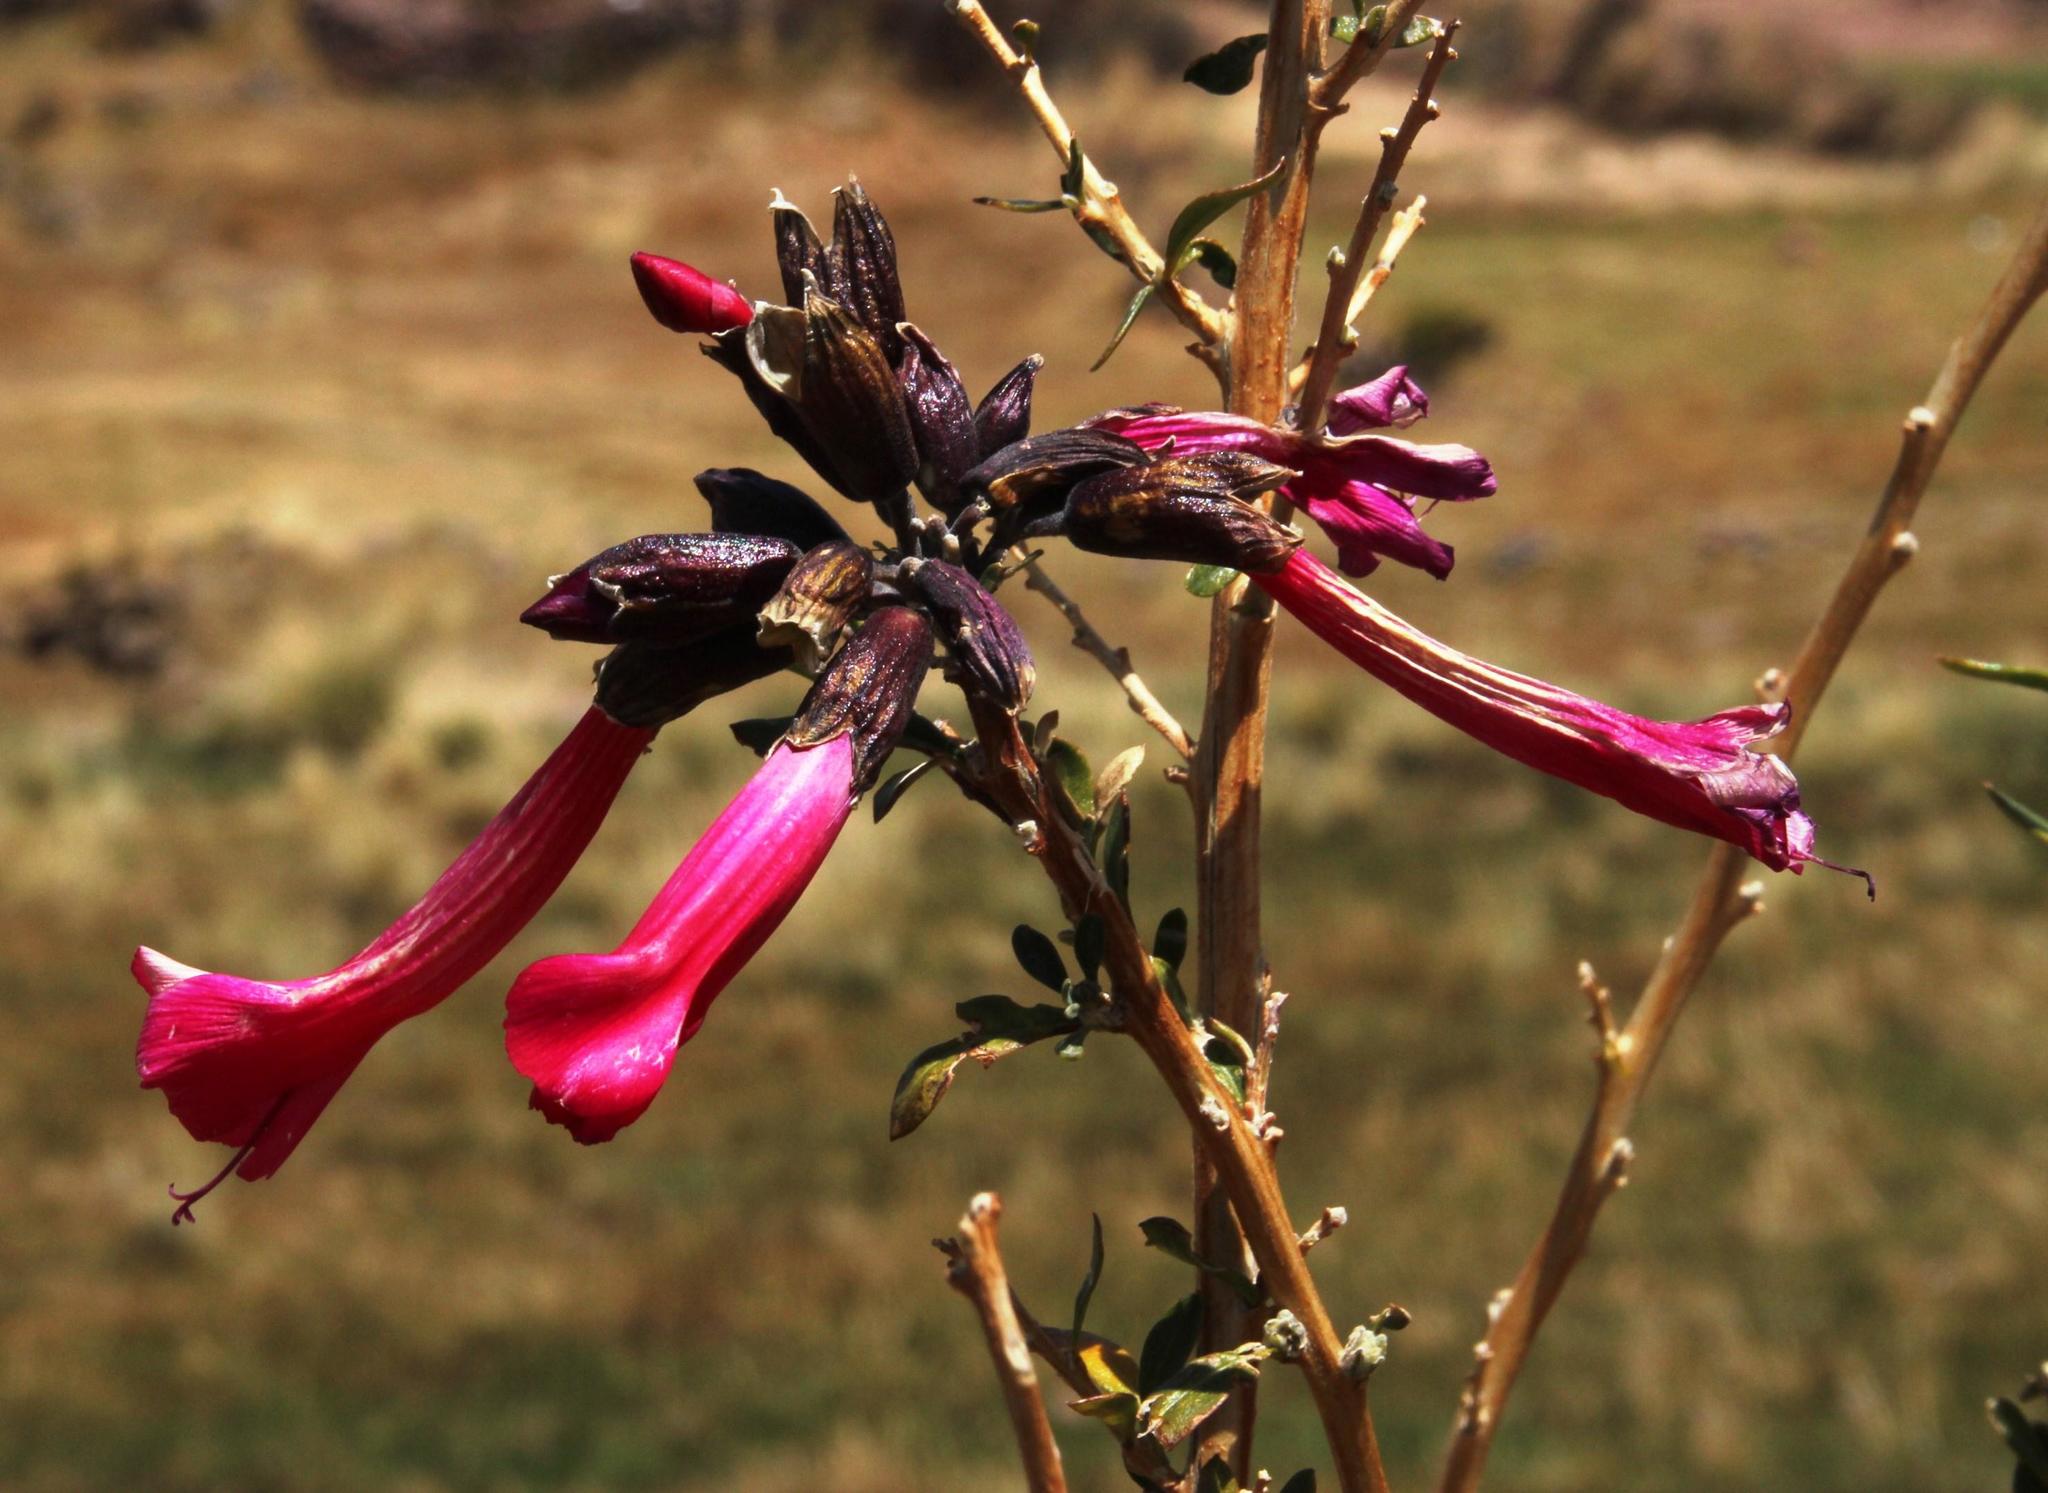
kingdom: Plantae
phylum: Tracheophyta
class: Magnoliopsida
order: Ericales
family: Polemoniaceae
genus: Cantua
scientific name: Cantua buxifolia
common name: Sacred-flower-of-the-incas
